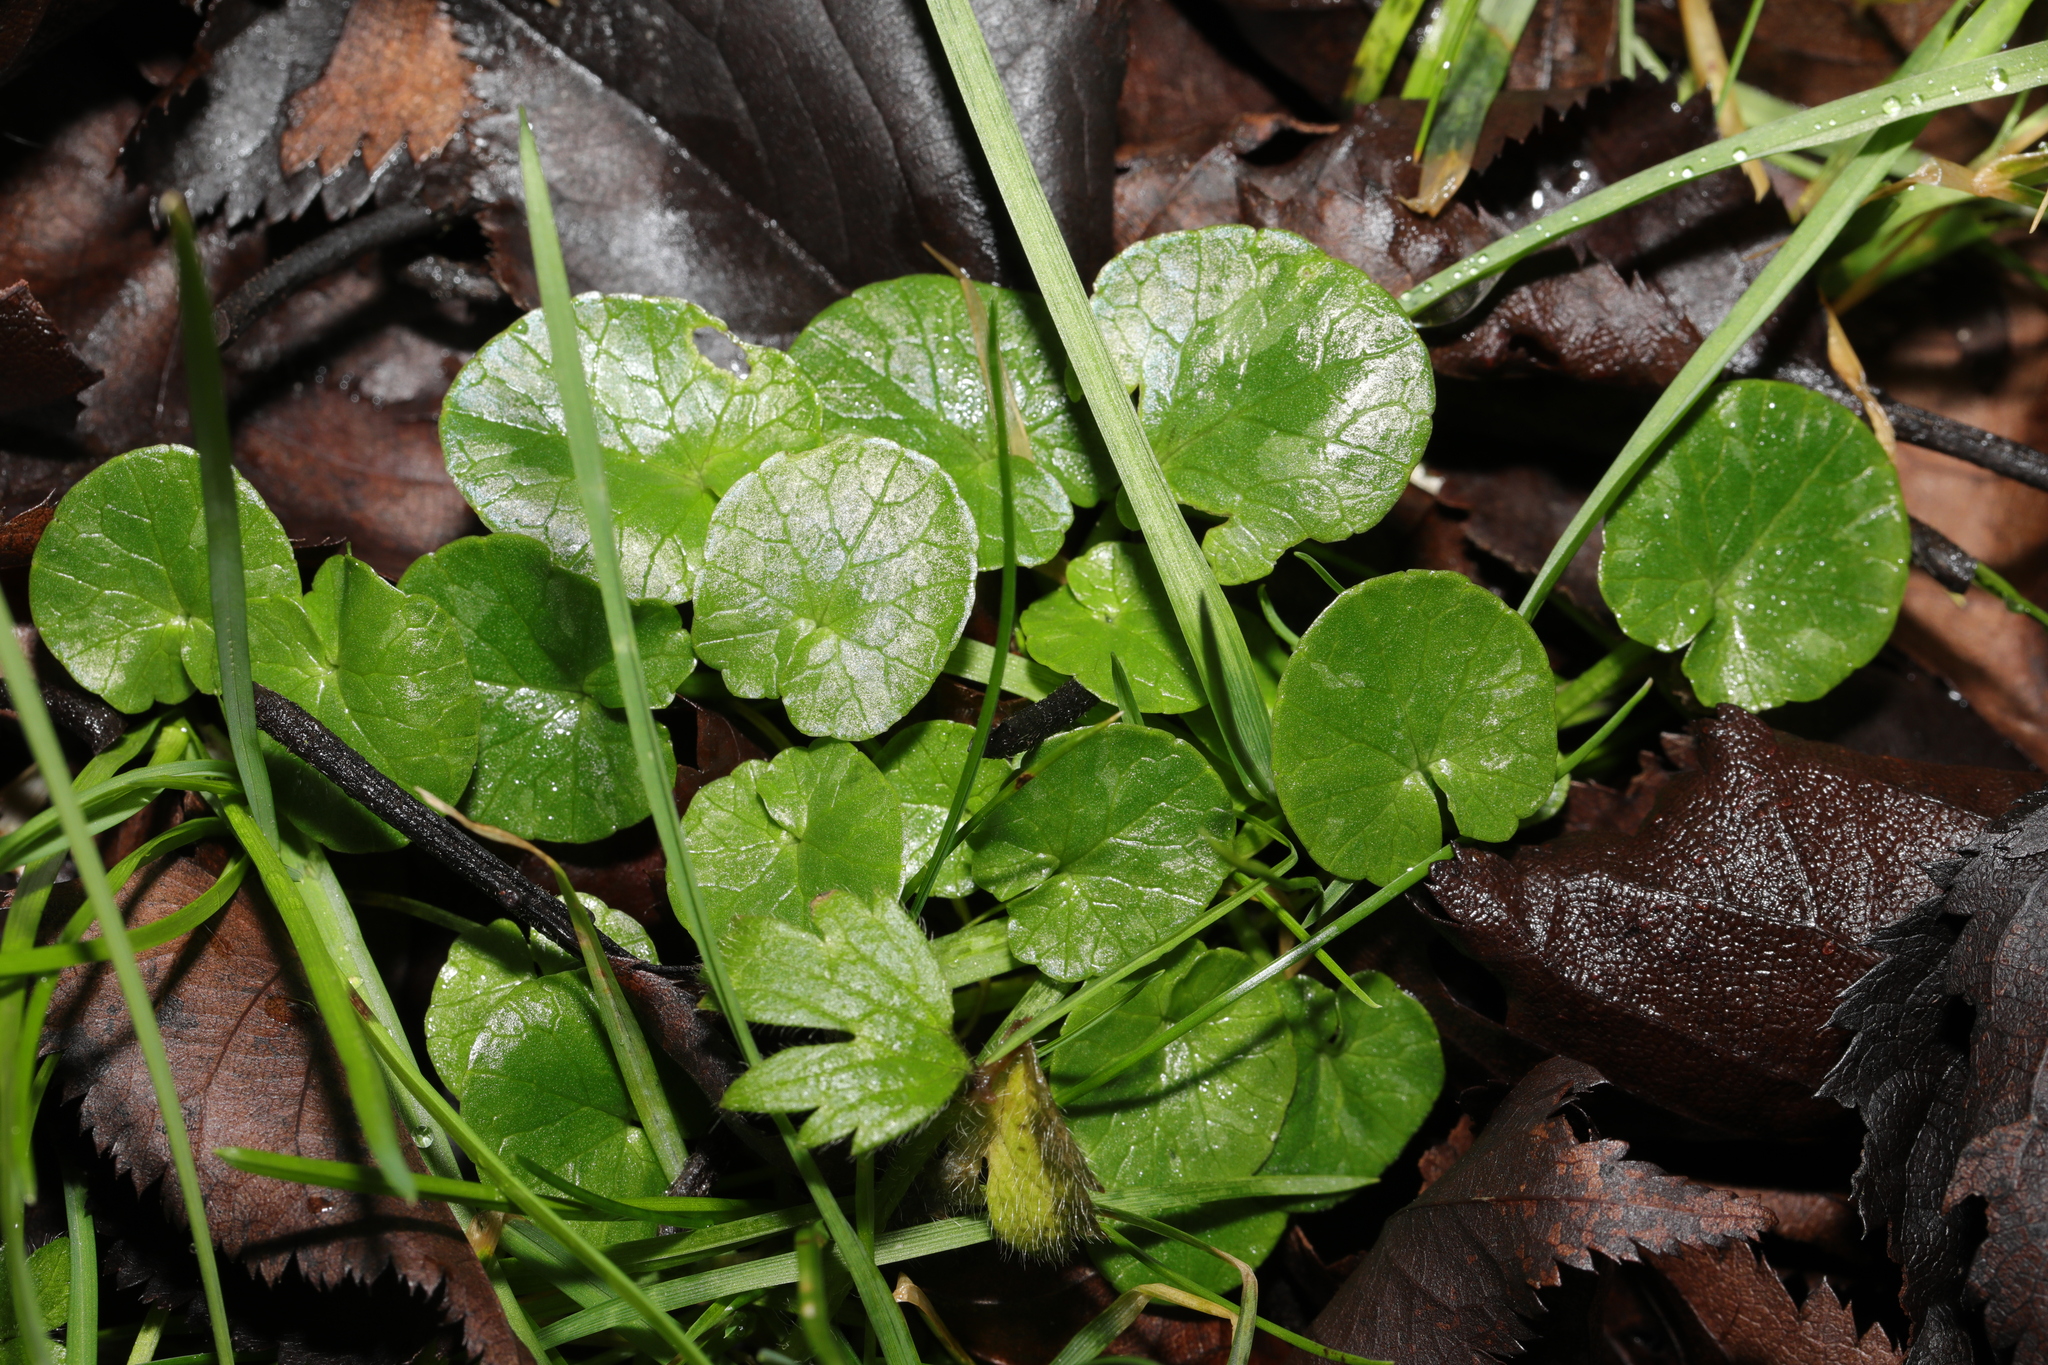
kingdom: Plantae
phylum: Tracheophyta
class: Magnoliopsida
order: Ranunculales
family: Ranunculaceae
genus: Ficaria
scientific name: Ficaria verna
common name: Lesser celandine
